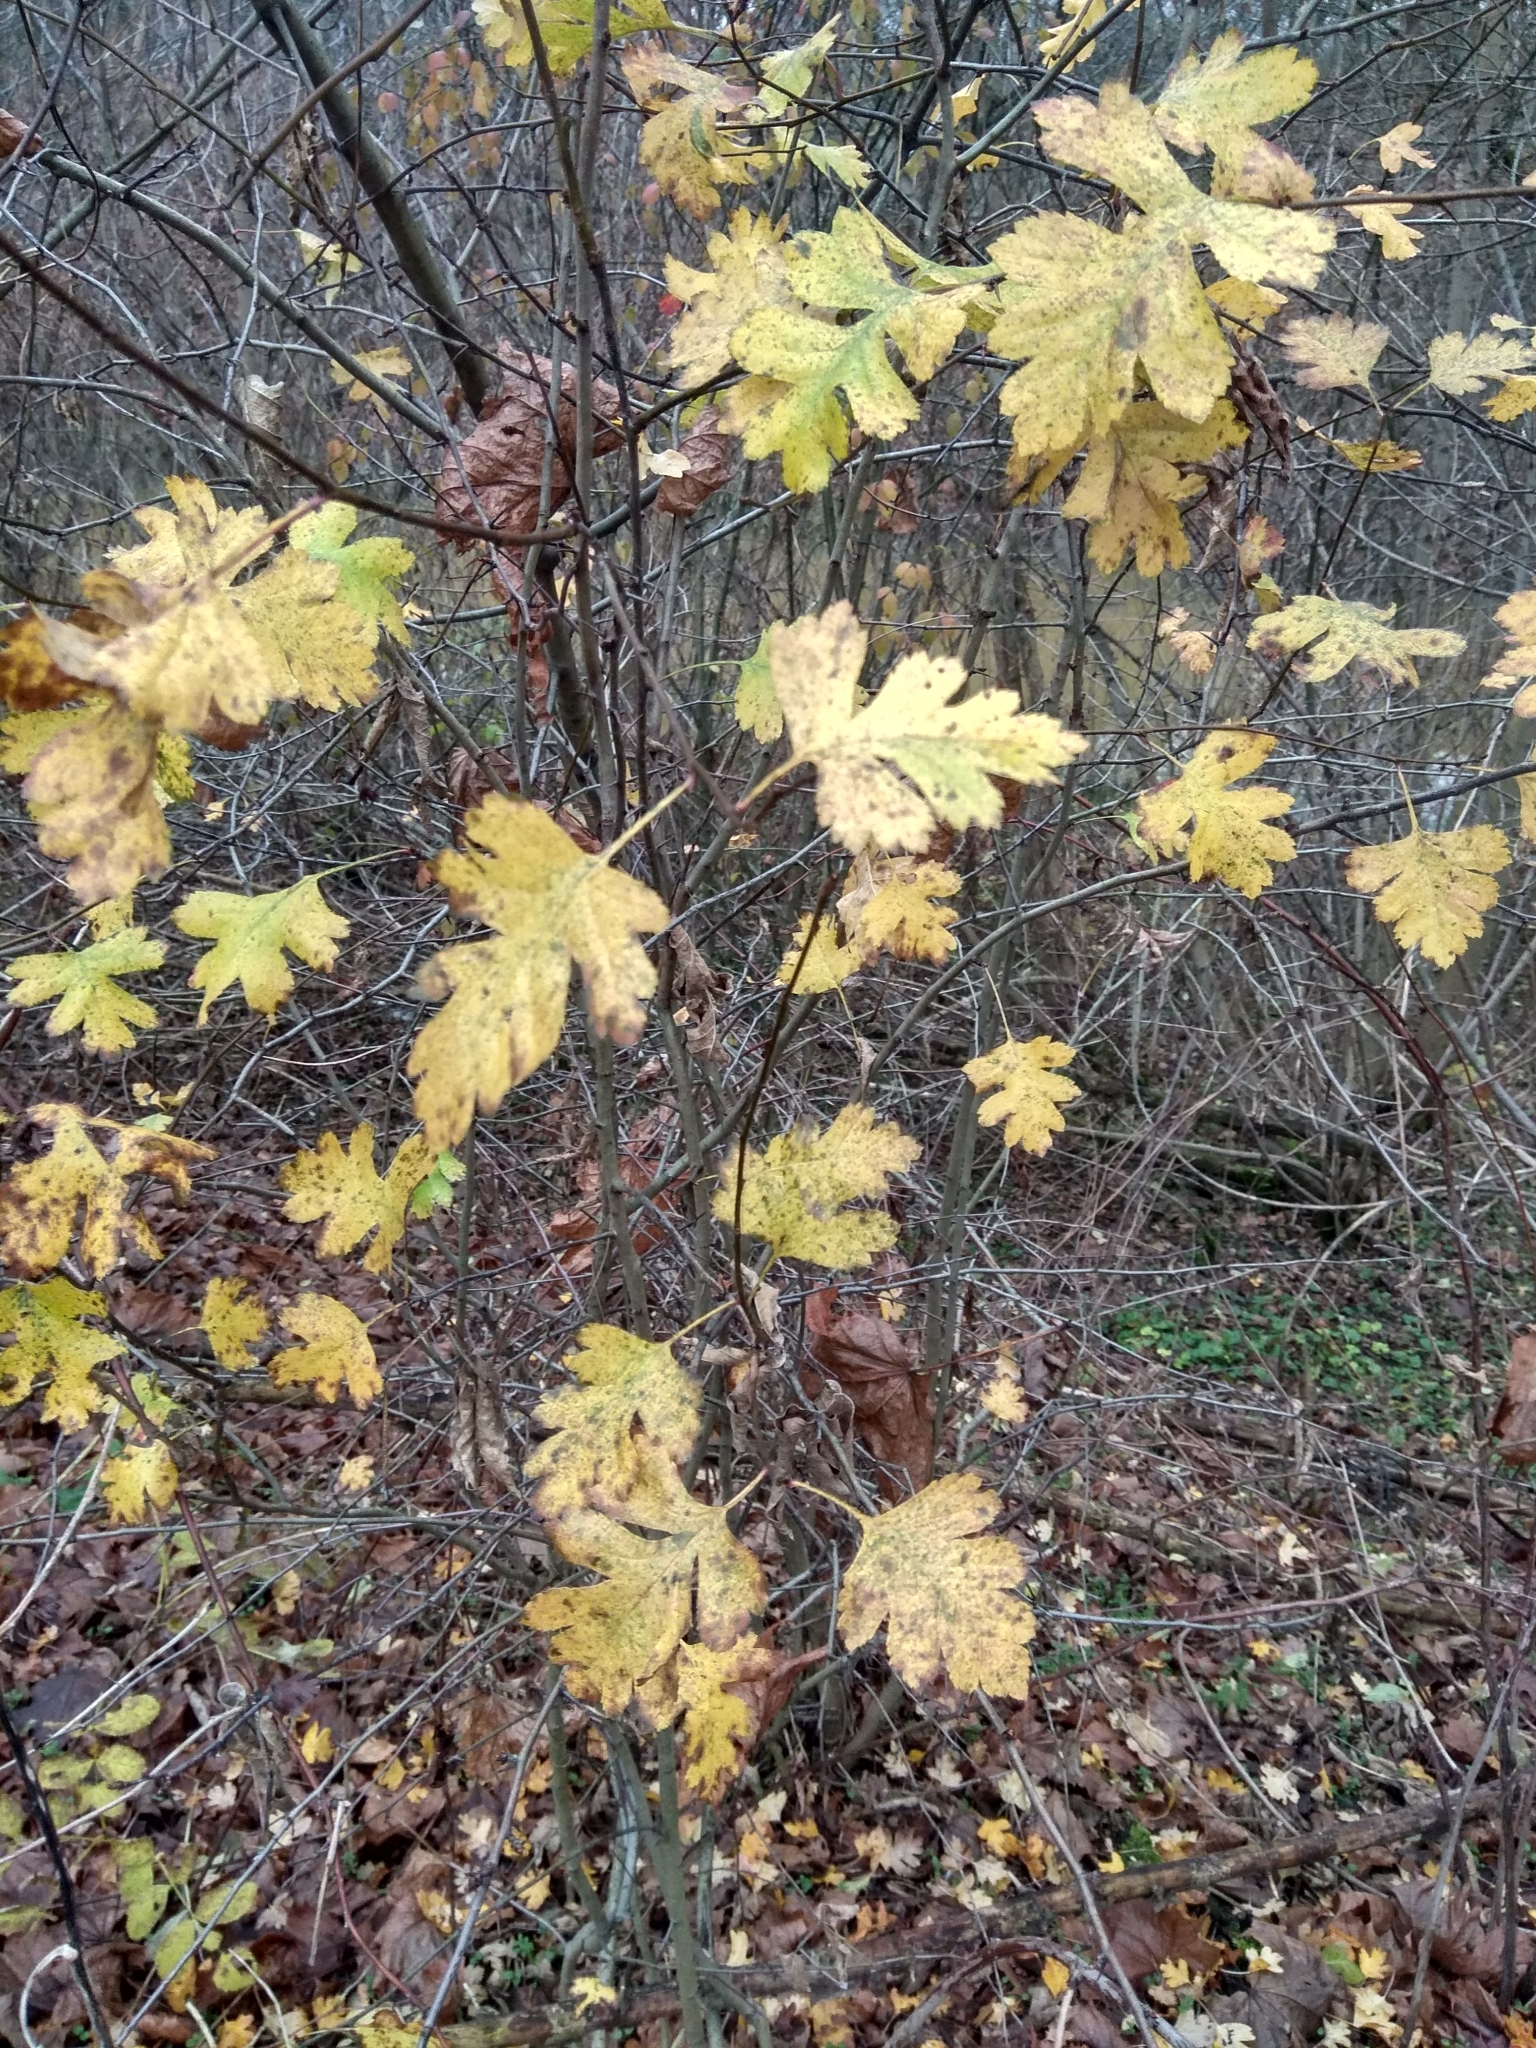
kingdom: Plantae
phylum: Tracheophyta
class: Magnoliopsida
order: Rosales
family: Rosaceae
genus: Crataegus
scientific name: Crataegus rhipidophylla
